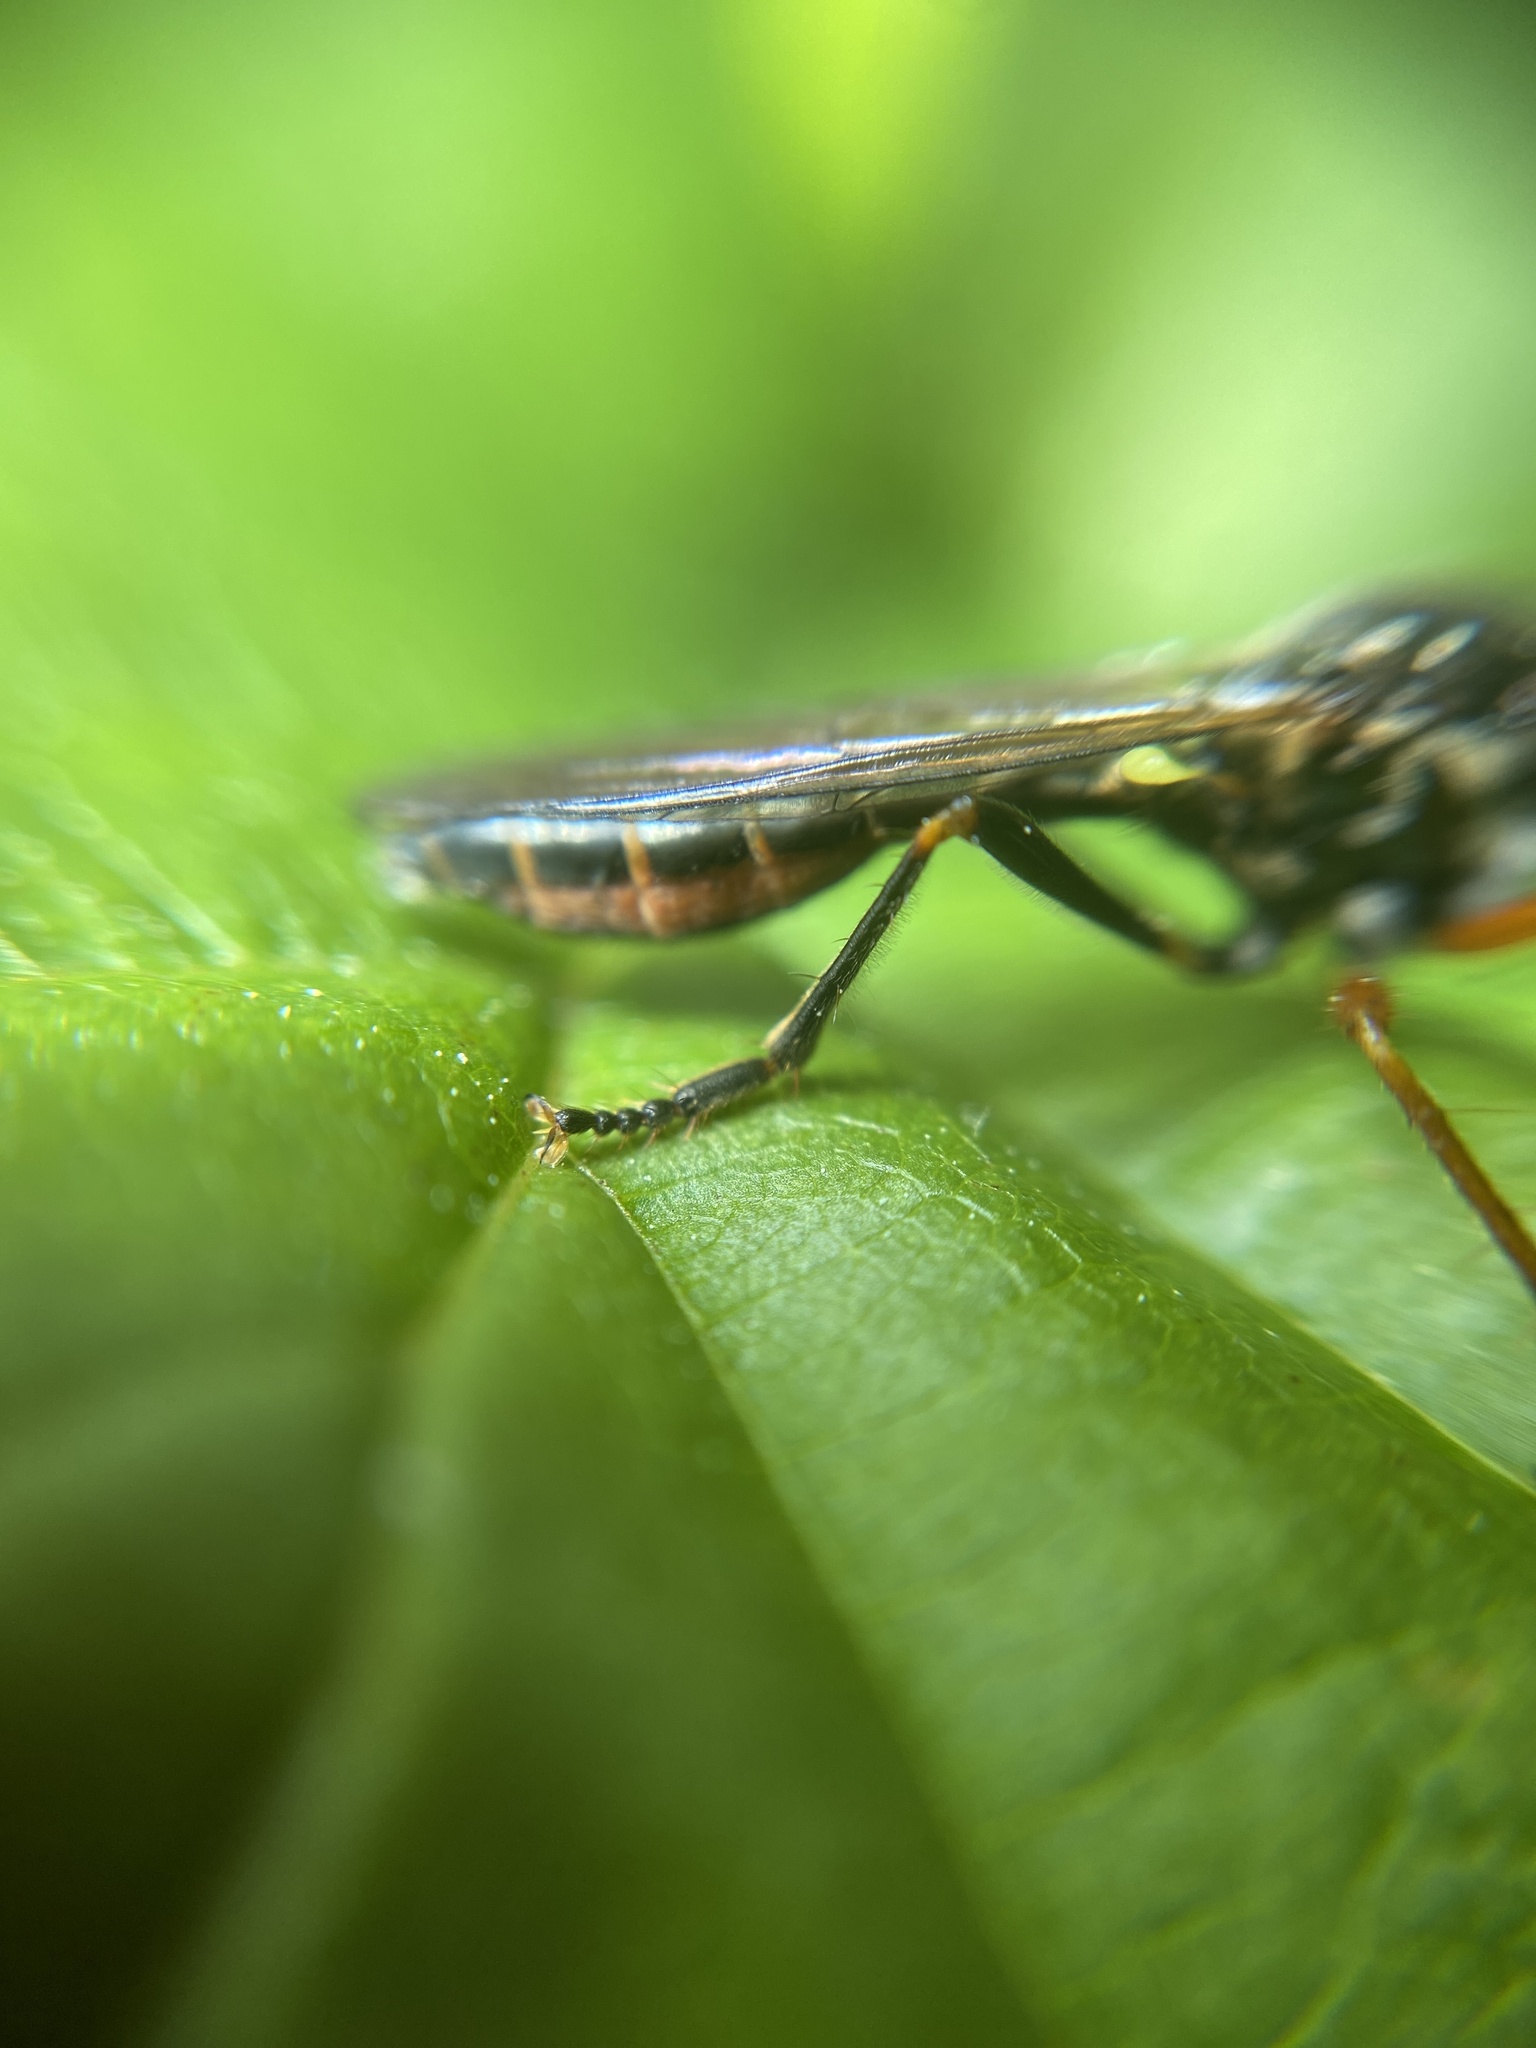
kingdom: Animalia
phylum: Arthropoda
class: Insecta
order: Diptera
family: Asilidae
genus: Dioctria
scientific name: Dioctria rufipes
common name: Common red-legged robberfly
